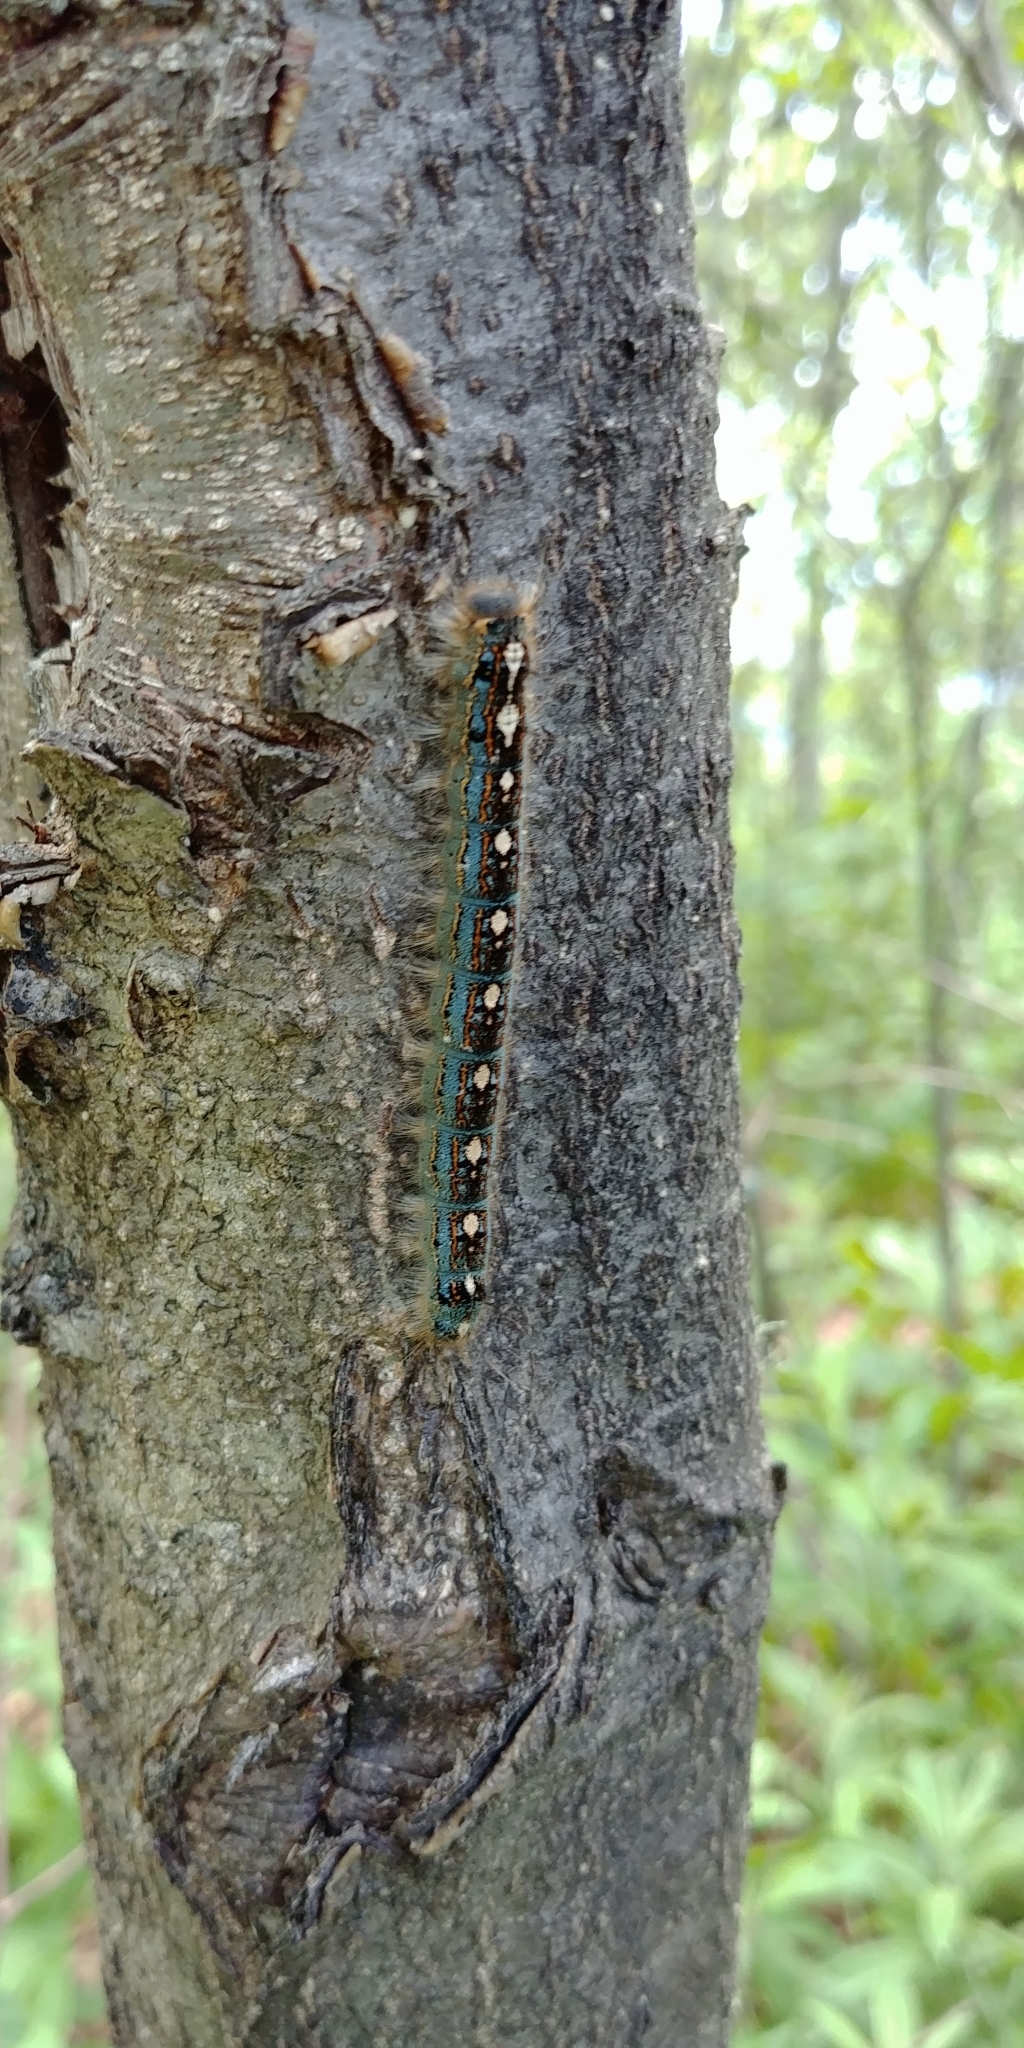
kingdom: Animalia
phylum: Arthropoda
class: Insecta
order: Lepidoptera
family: Lasiocampidae
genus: Malacosoma
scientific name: Malacosoma disstria
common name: Forest tent caterpillar
